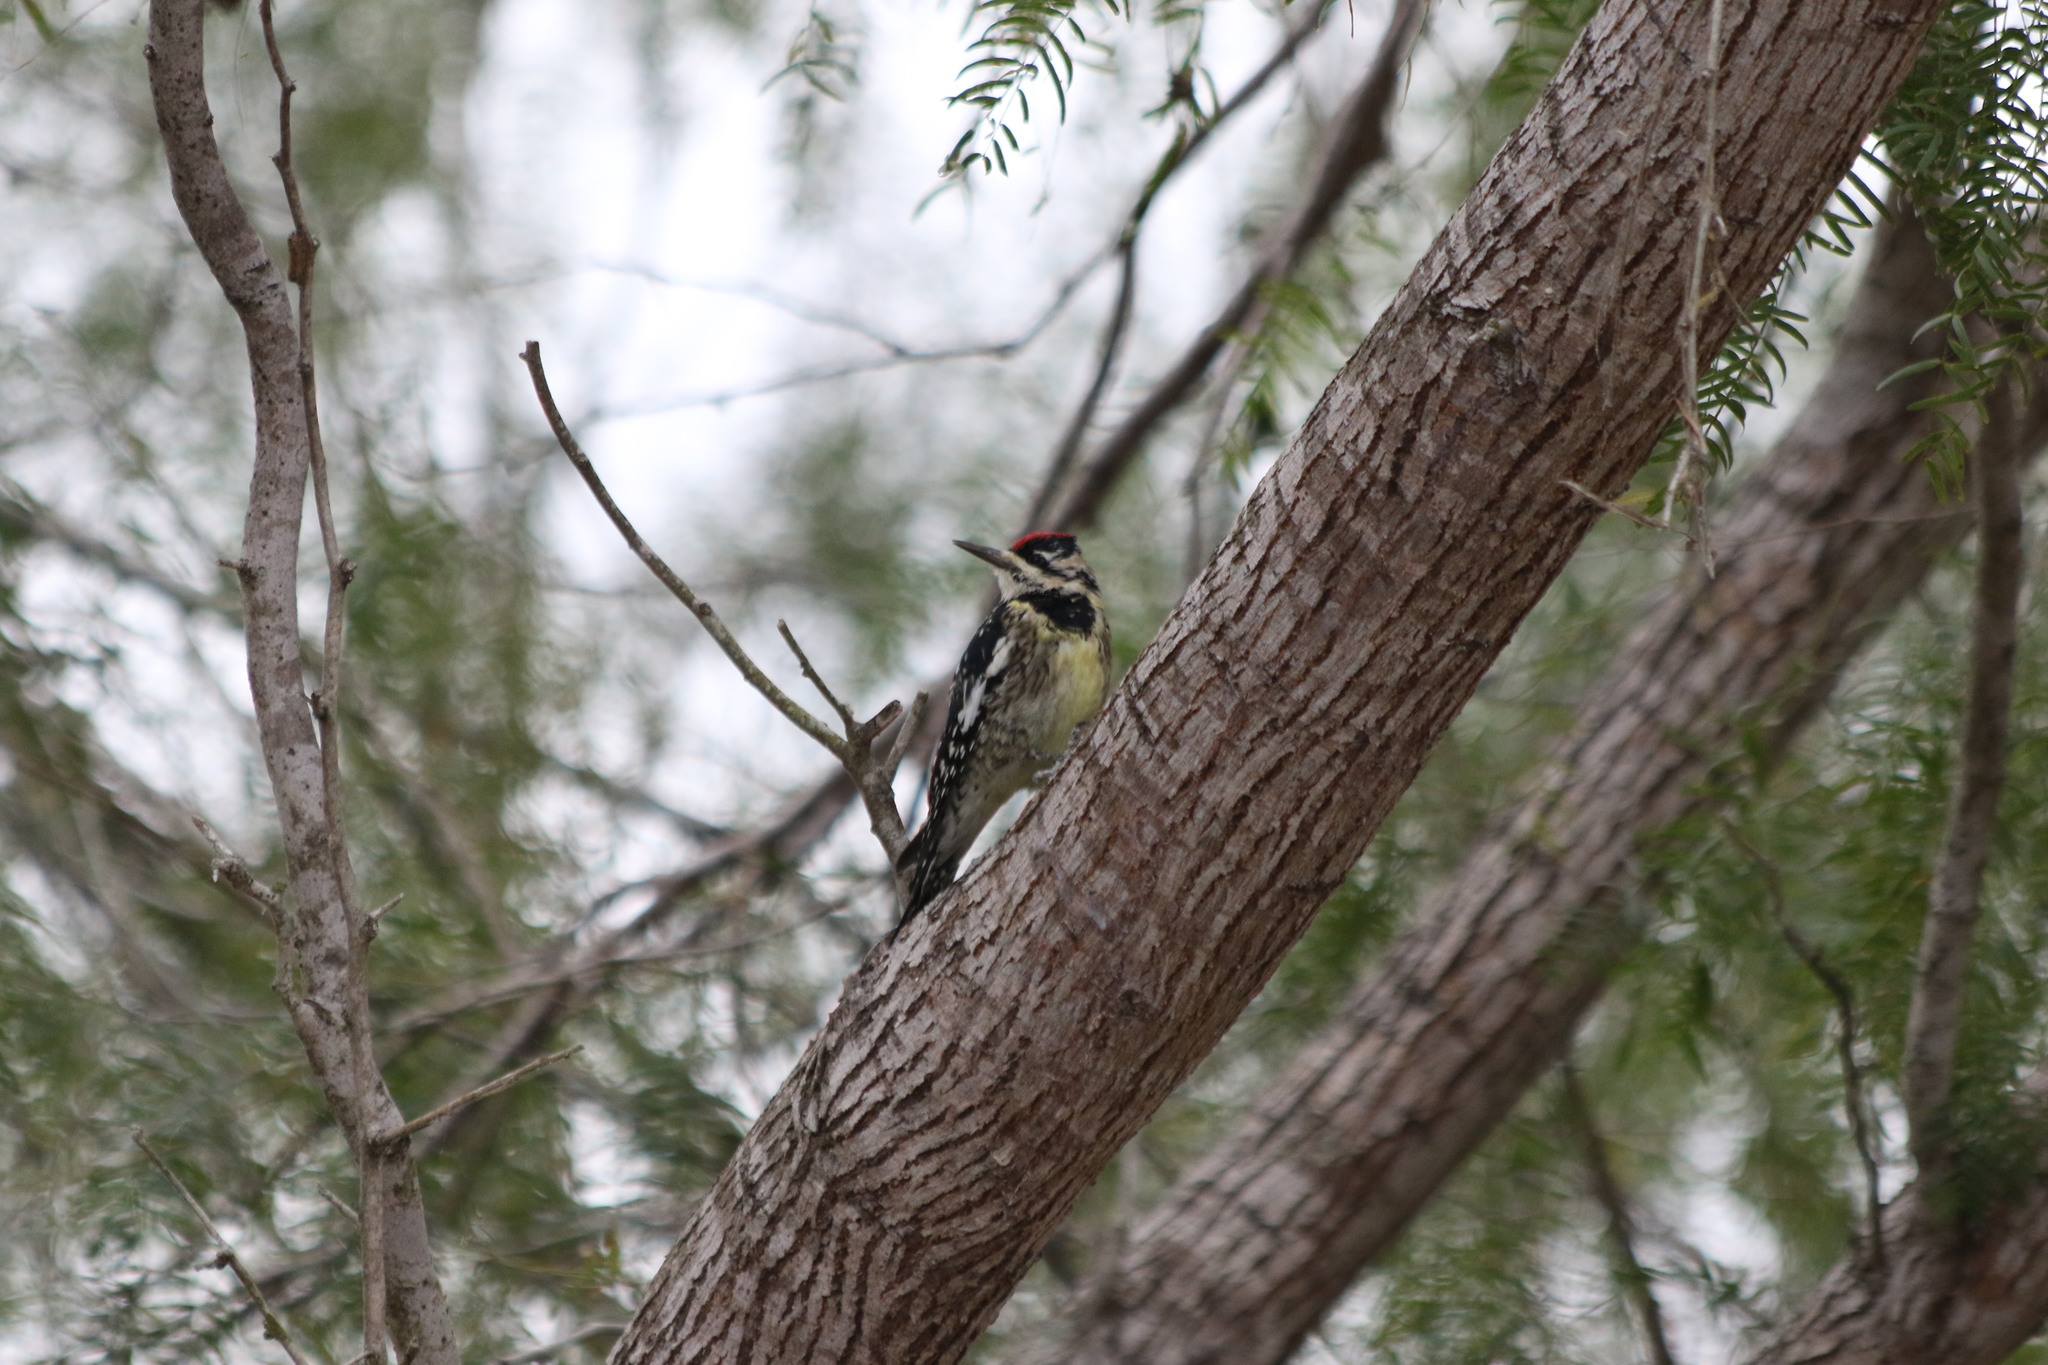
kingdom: Animalia
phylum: Chordata
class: Aves
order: Piciformes
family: Picidae
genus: Sphyrapicus
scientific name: Sphyrapicus varius
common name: Yellow-bellied sapsucker
